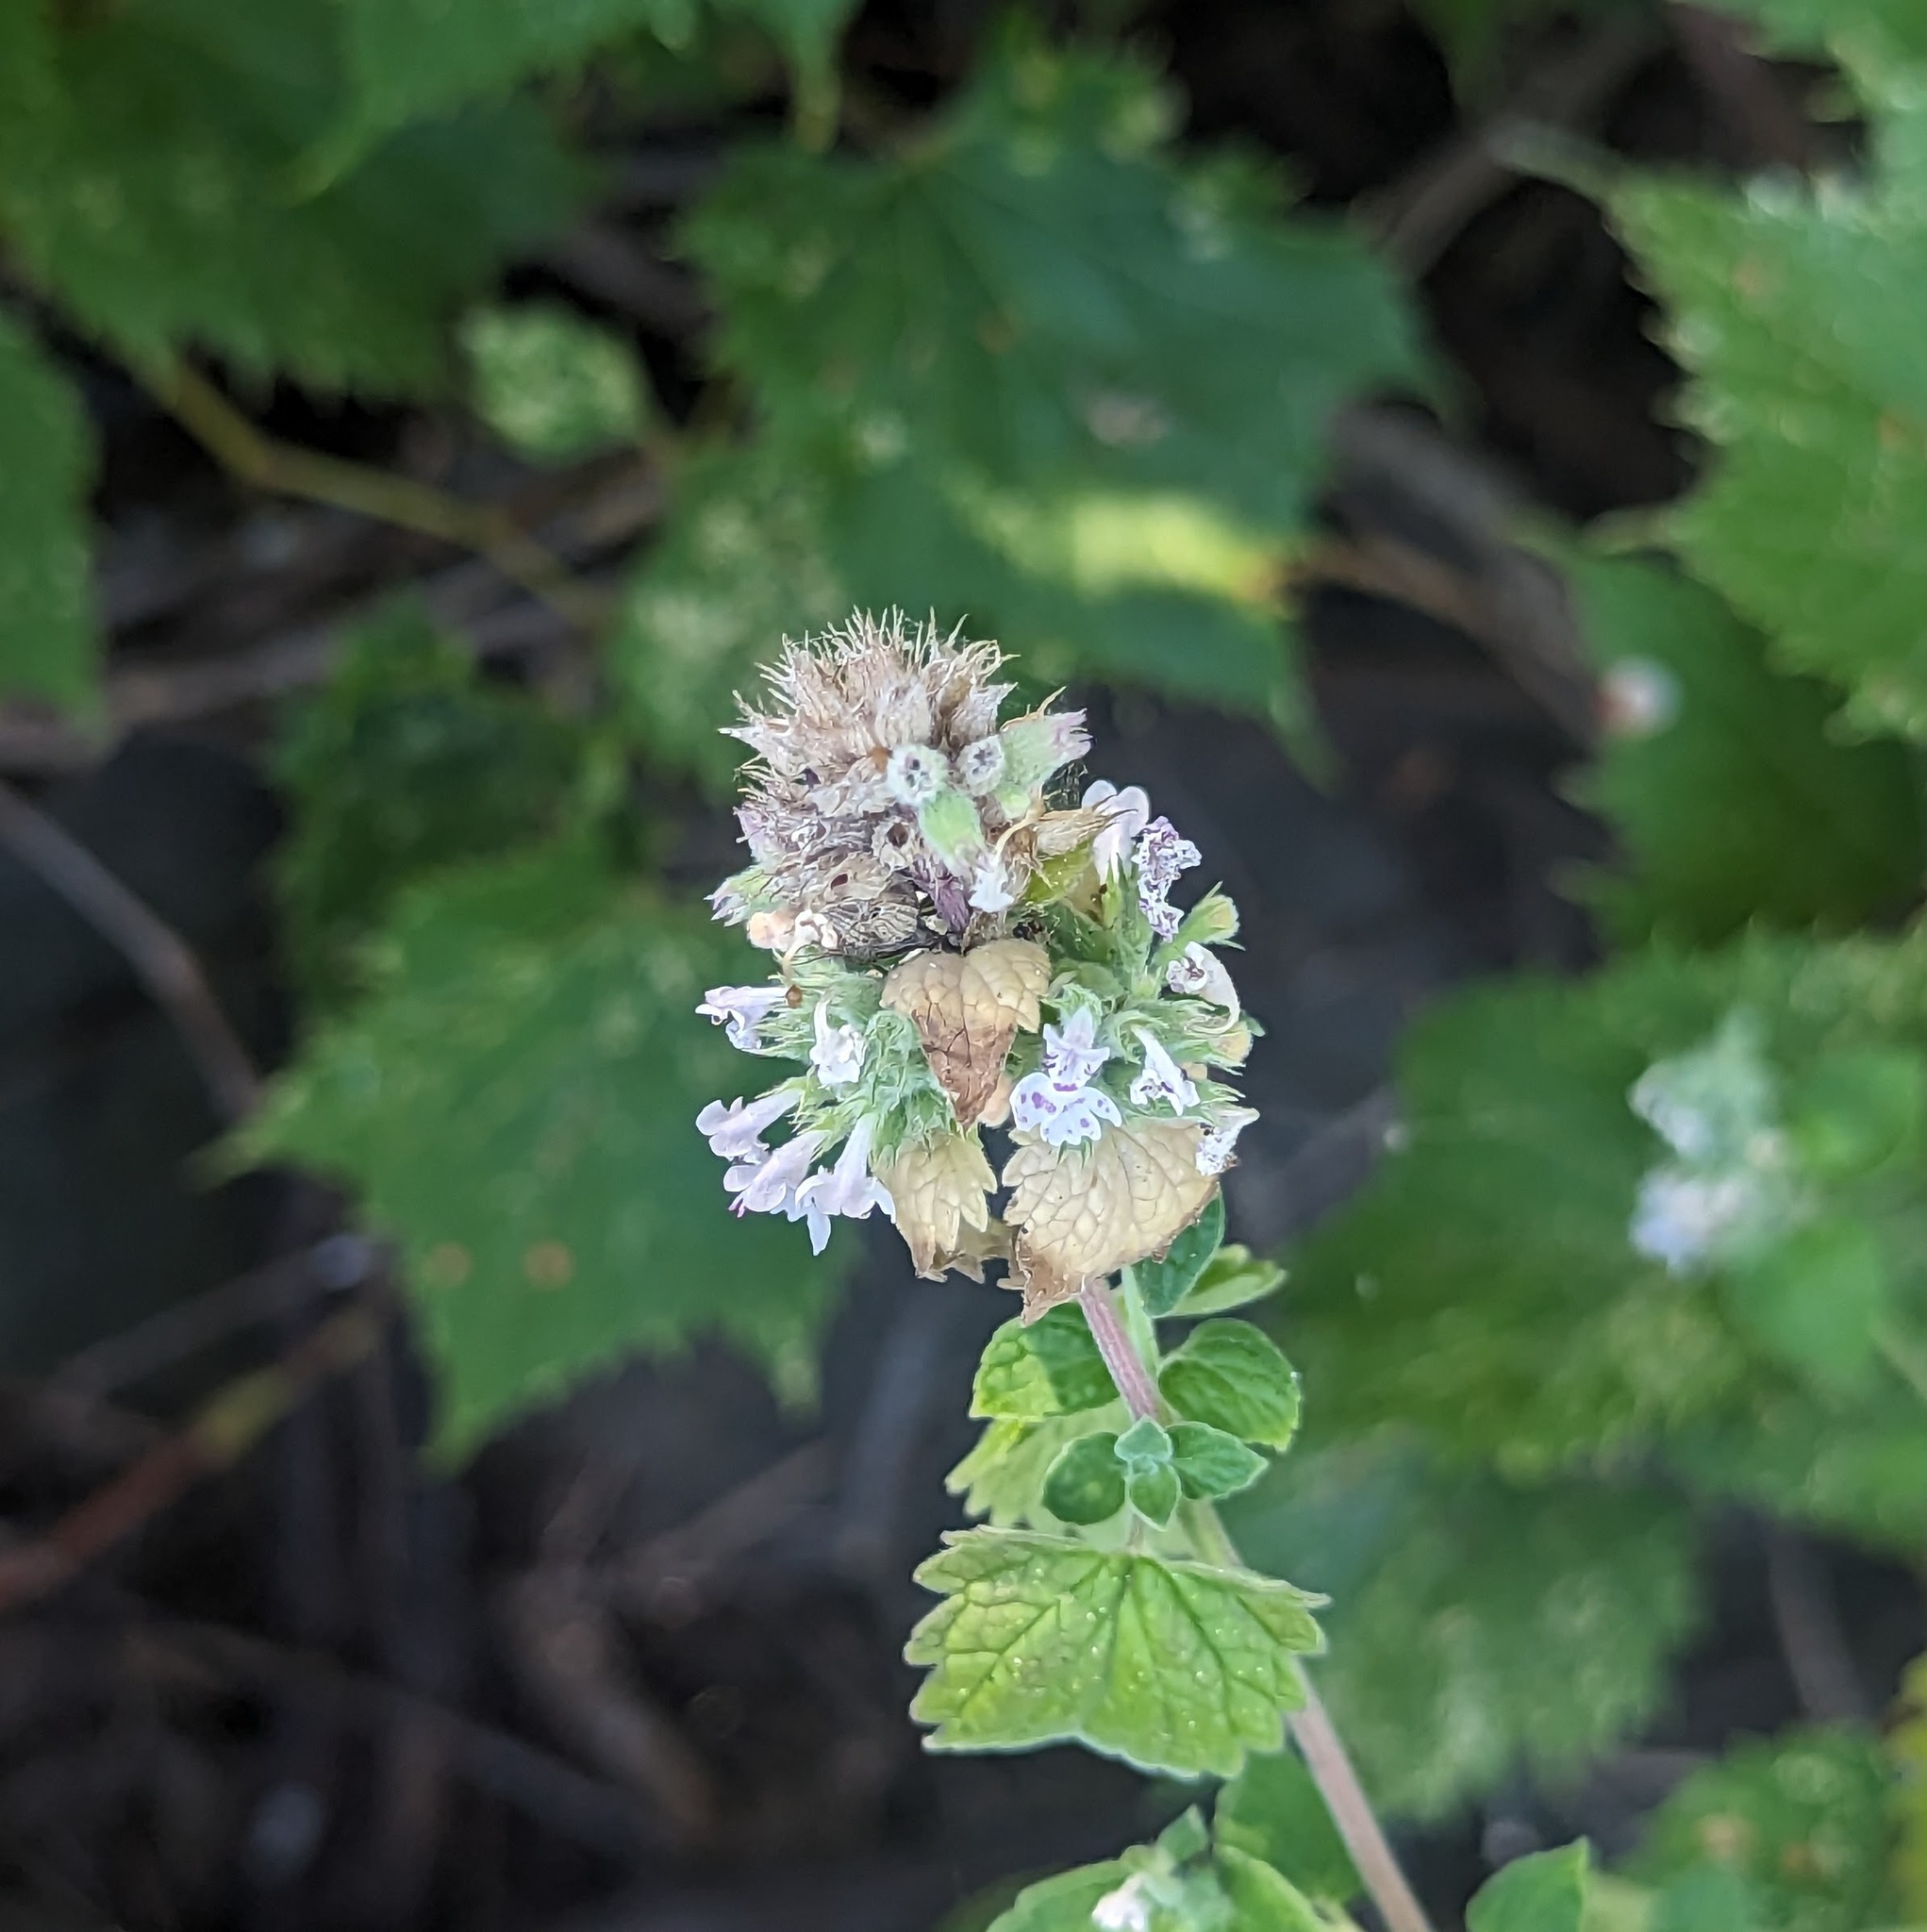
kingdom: Plantae
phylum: Tracheophyta
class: Magnoliopsida
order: Lamiales
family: Lamiaceae
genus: Nepeta
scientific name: Nepeta cataria
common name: Catnip
